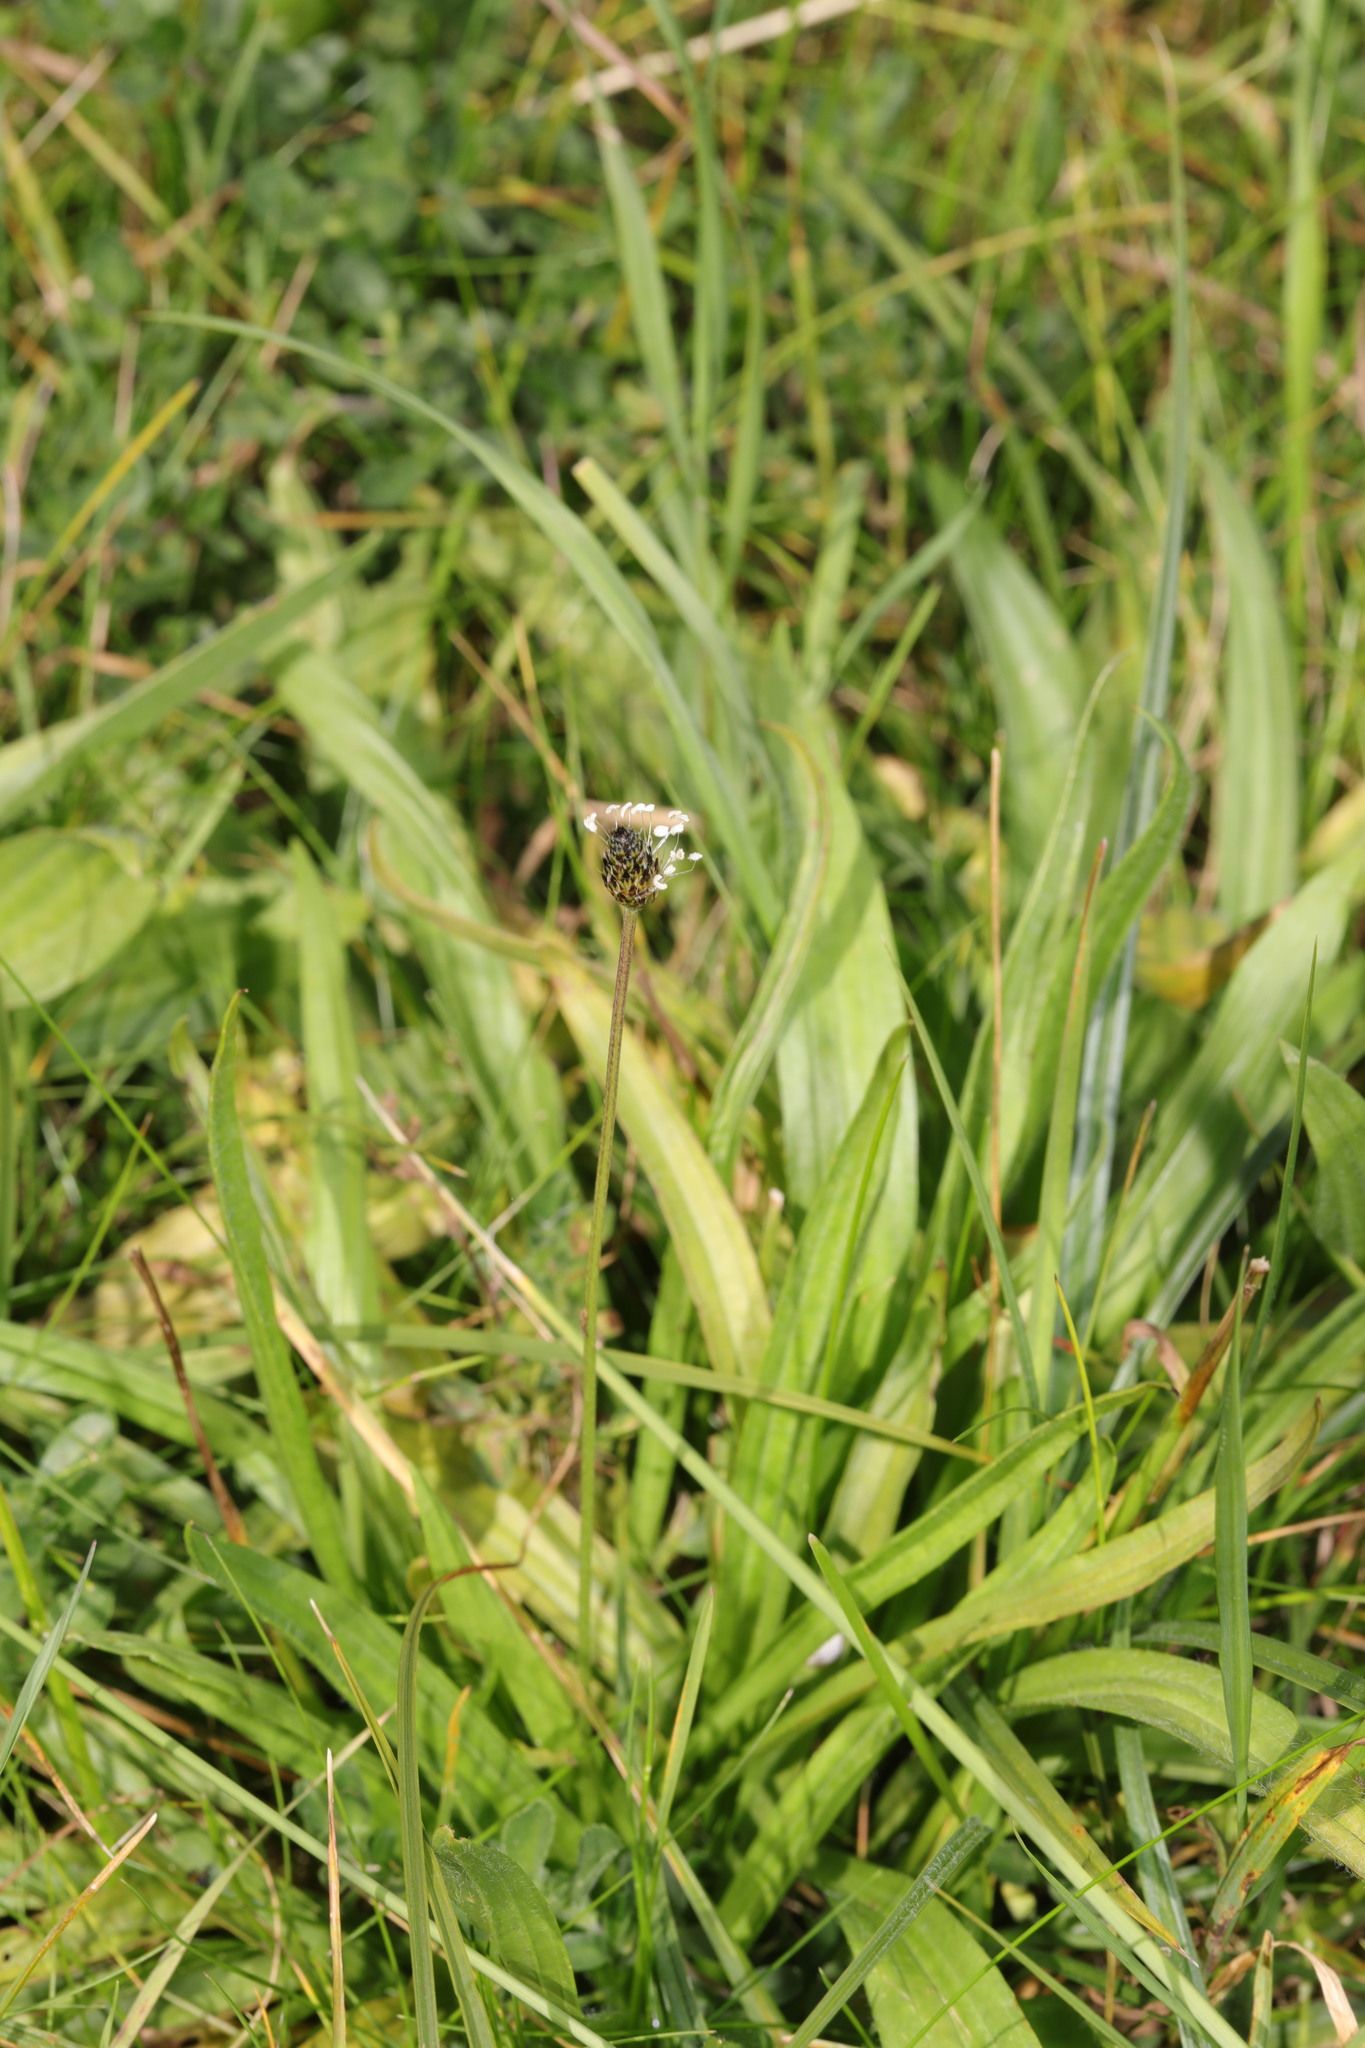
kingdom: Plantae
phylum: Tracheophyta
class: Magnoliopsida
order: Lamiales
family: Plantaginaceae
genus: Plantago
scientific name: Plantago lanceolata
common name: Ribwort plantain
